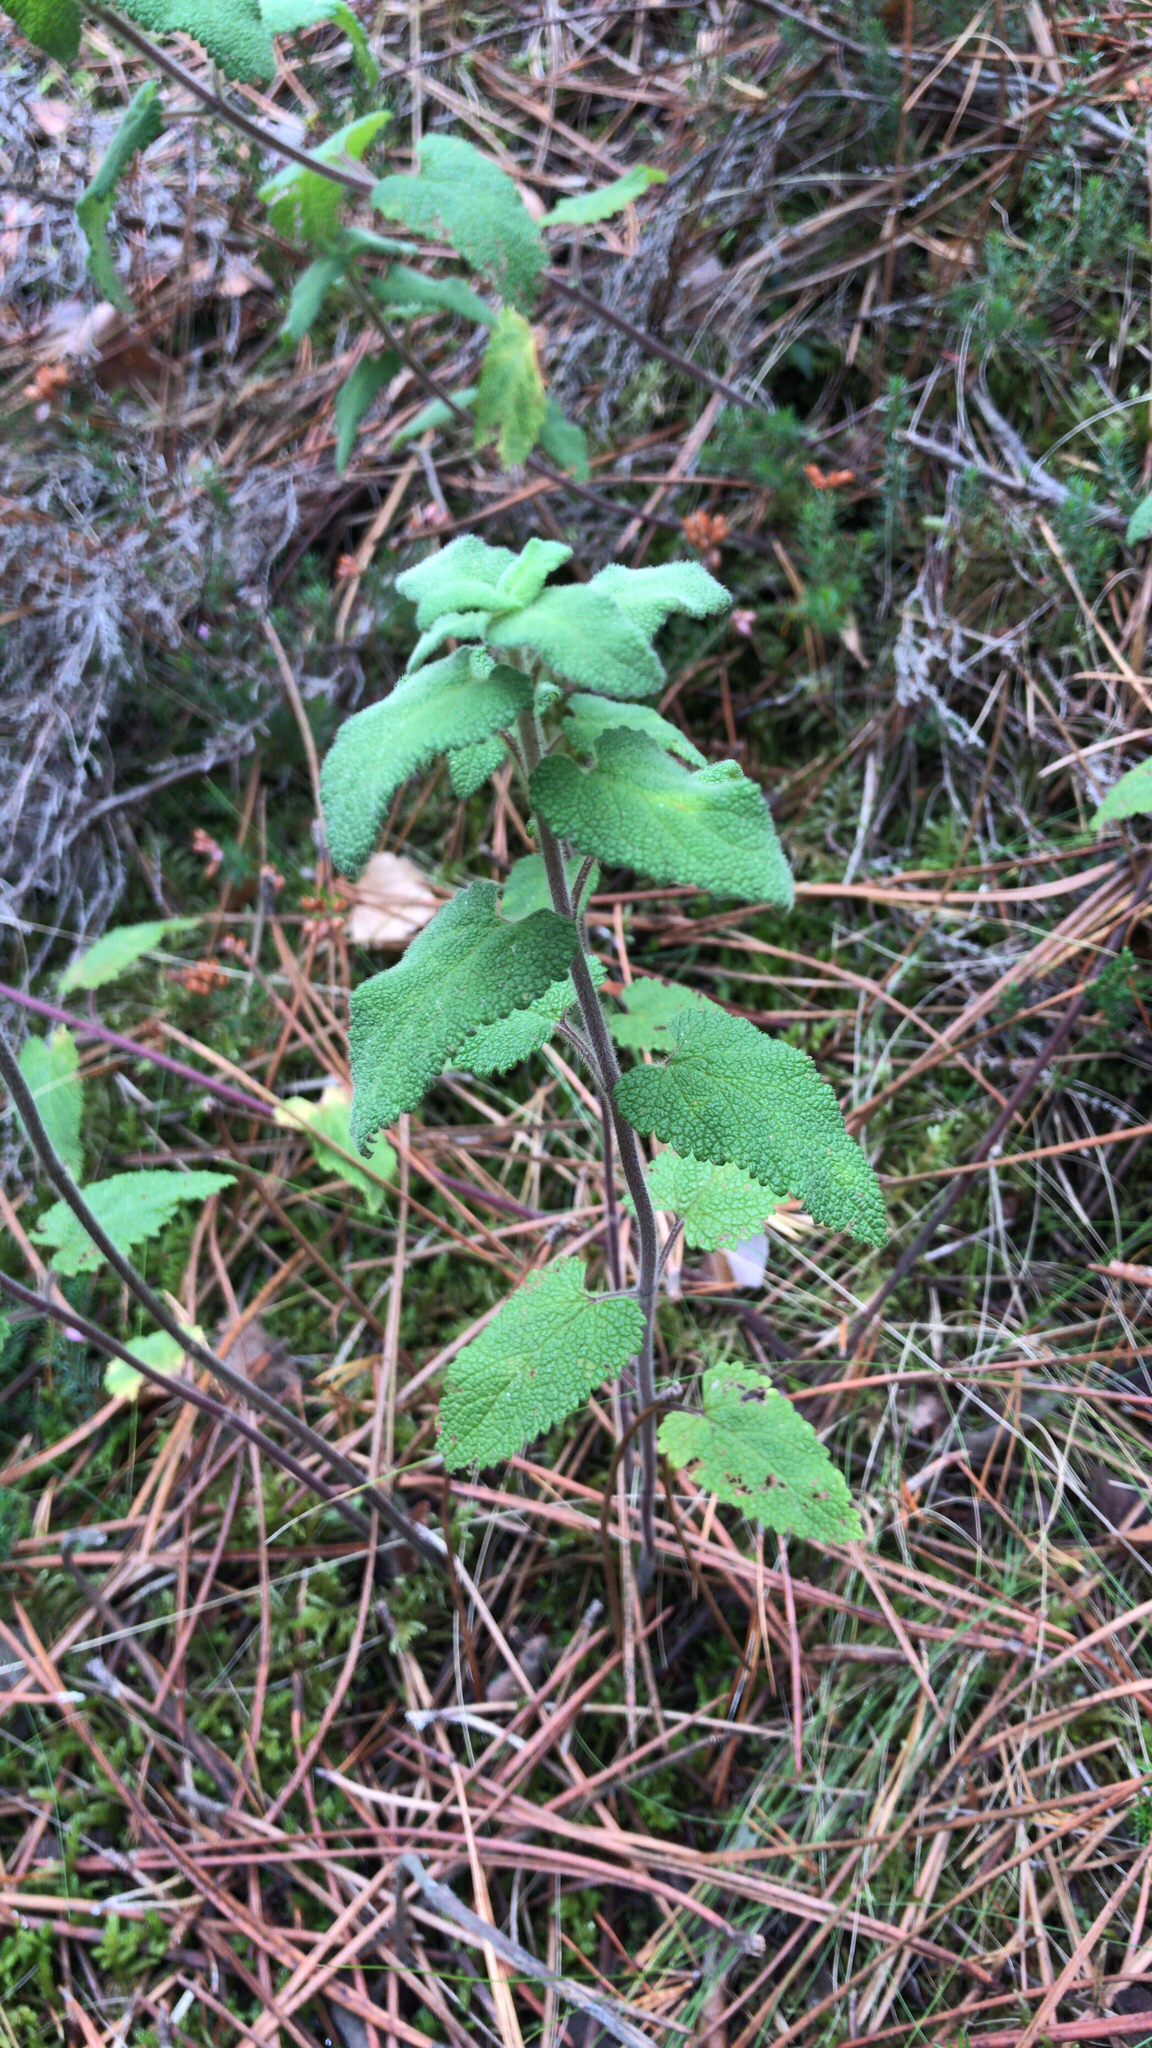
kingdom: Plantae
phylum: Tracheophyta
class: Magnoliopsida
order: Lamiales
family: Lamiaceae
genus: Teucrium
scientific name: Teucrium scorodonia
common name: Woodland germander
